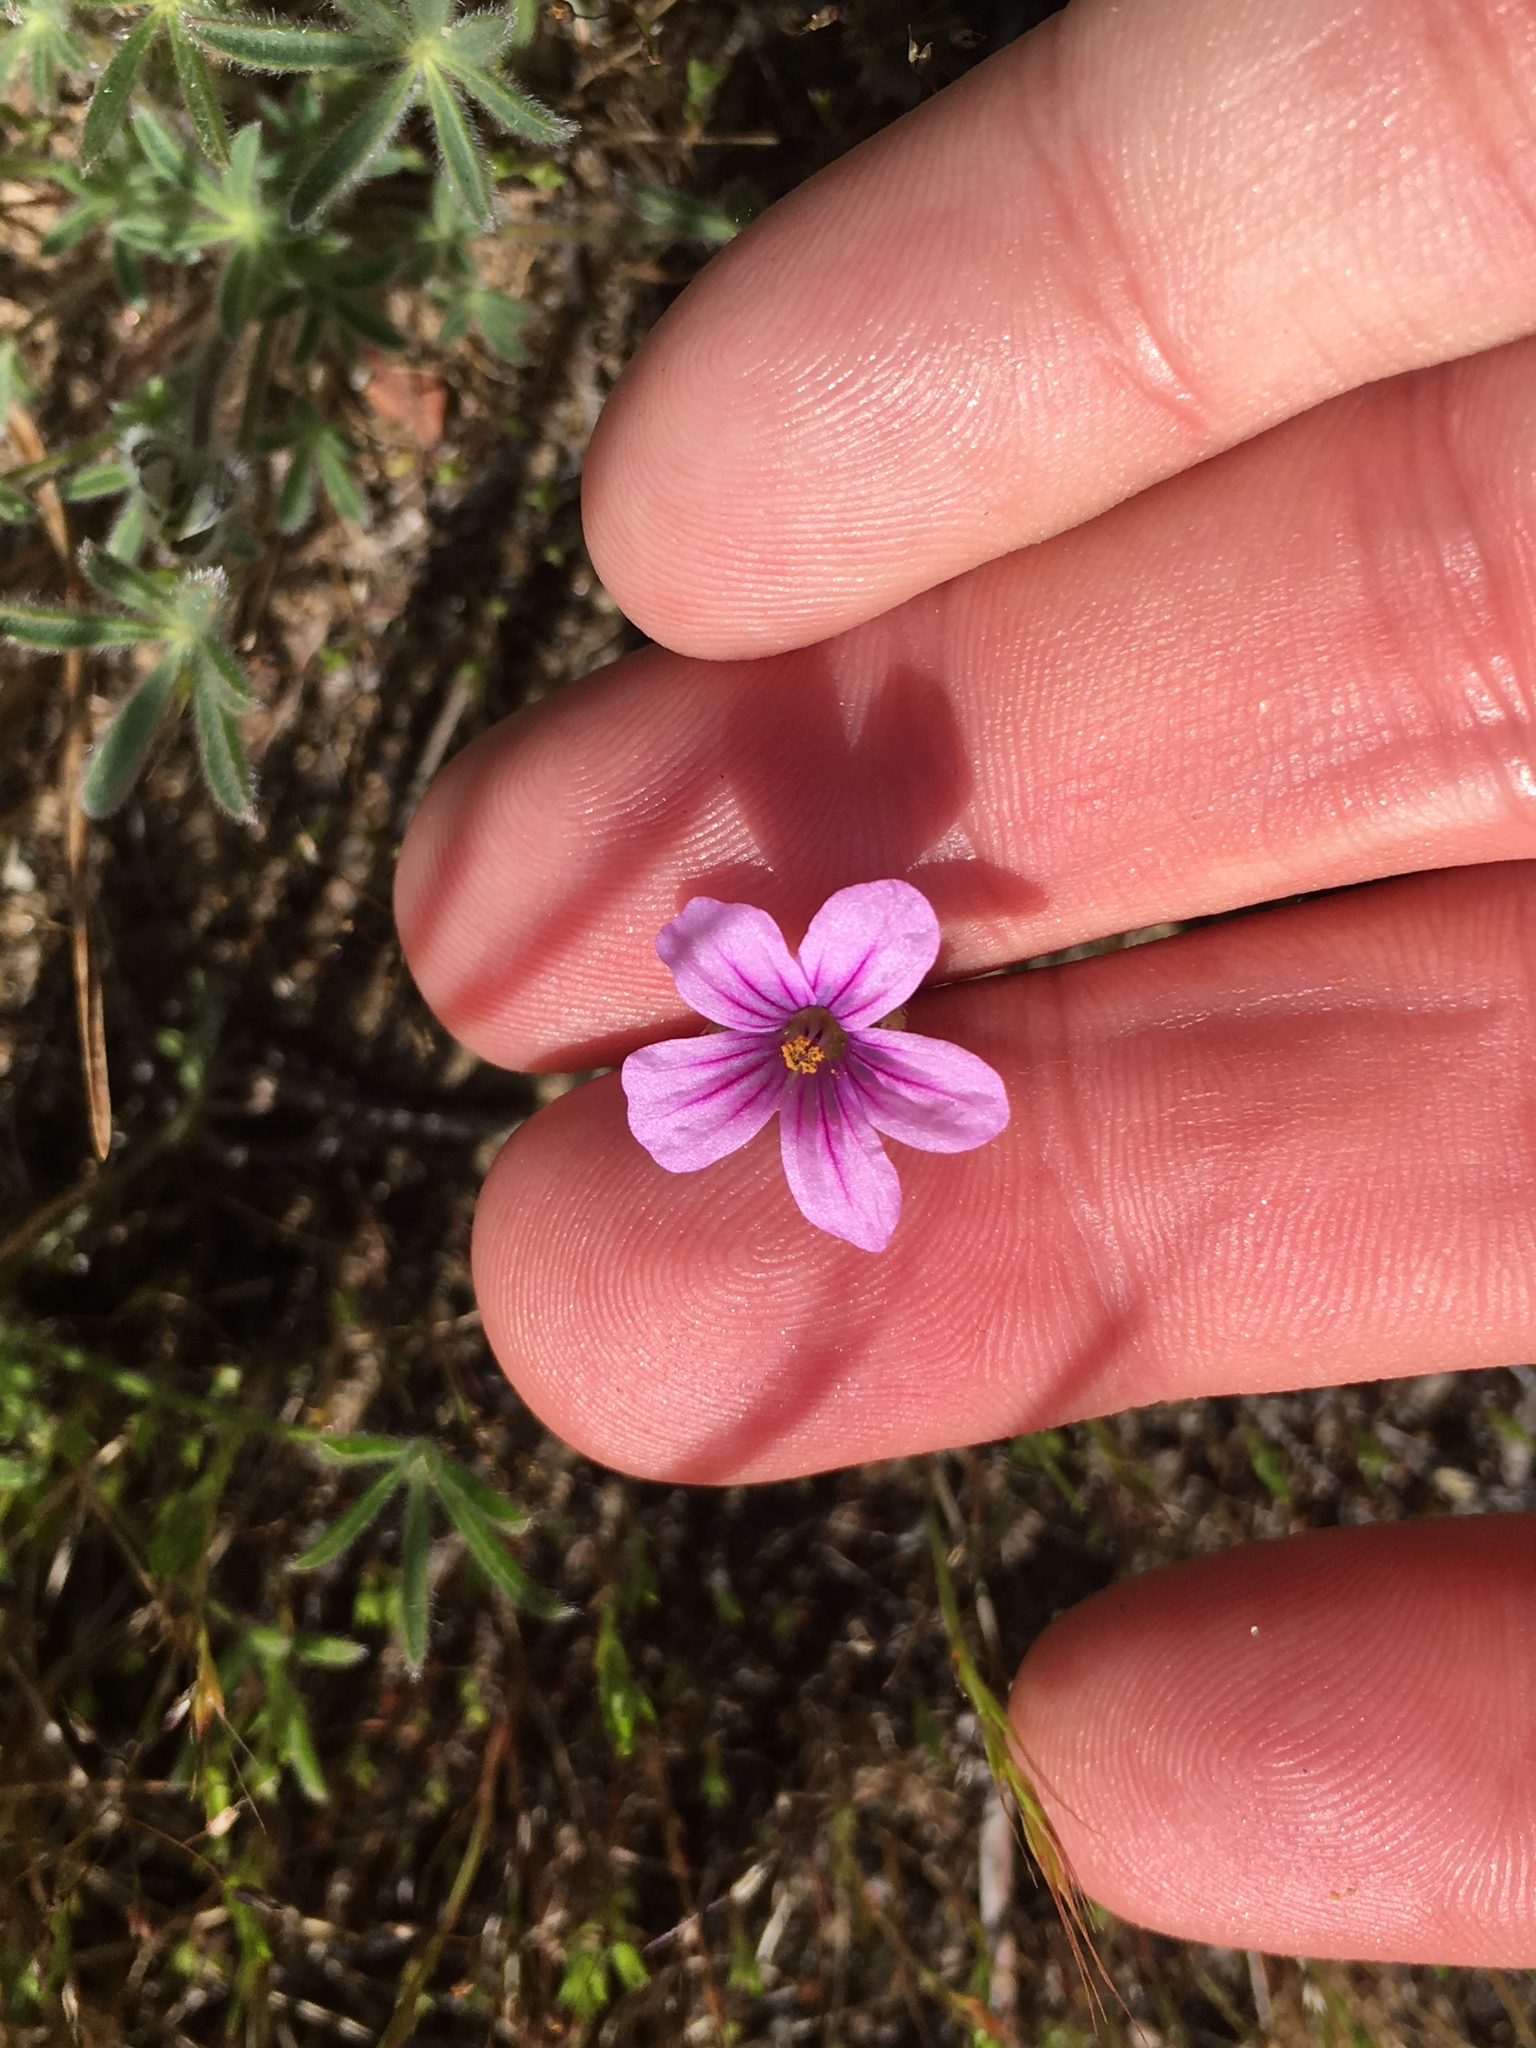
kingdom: Plantae
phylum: Tracheophyta
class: Magnoliopsida
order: Geraniales
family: Geraniaceae
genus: Erodium
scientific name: Erodium botrys
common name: Mediterranean stork's-bill
